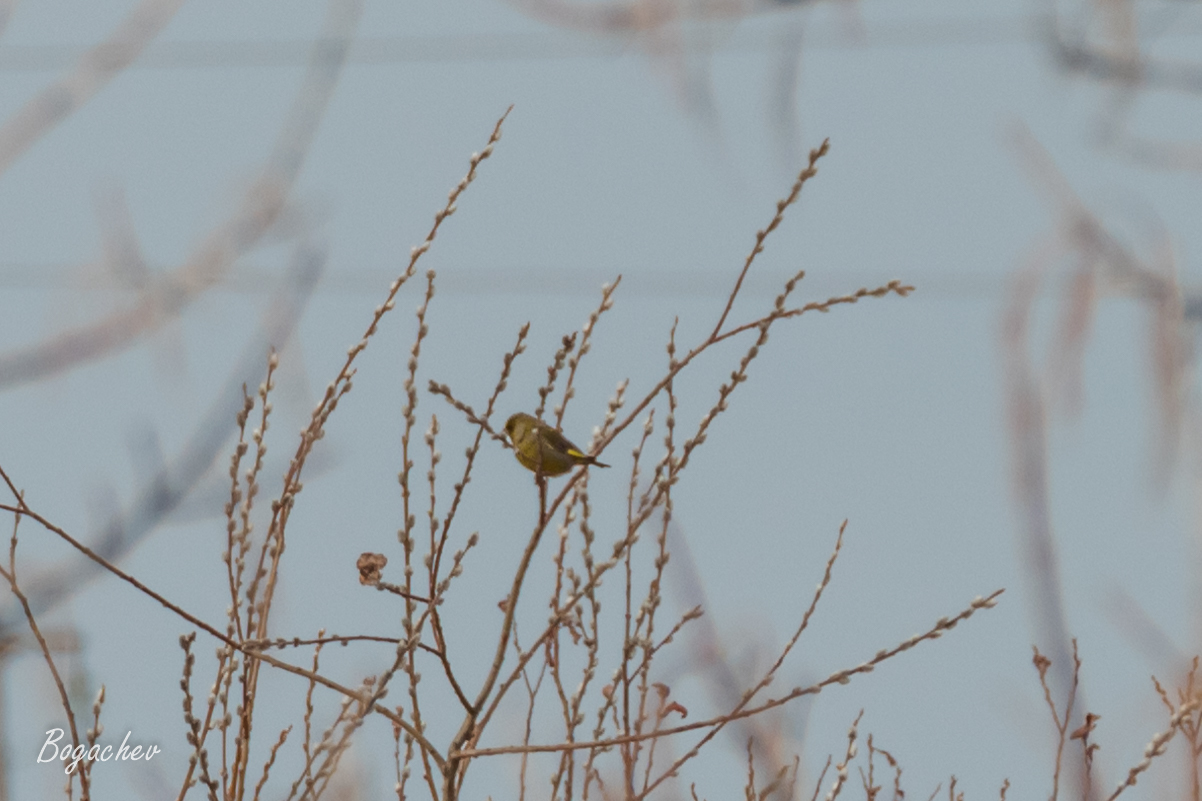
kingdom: Plantae
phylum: Tracheophyta
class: Liliopsida
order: Poales
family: Poaceae
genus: Chloris
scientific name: Chloris chloris
